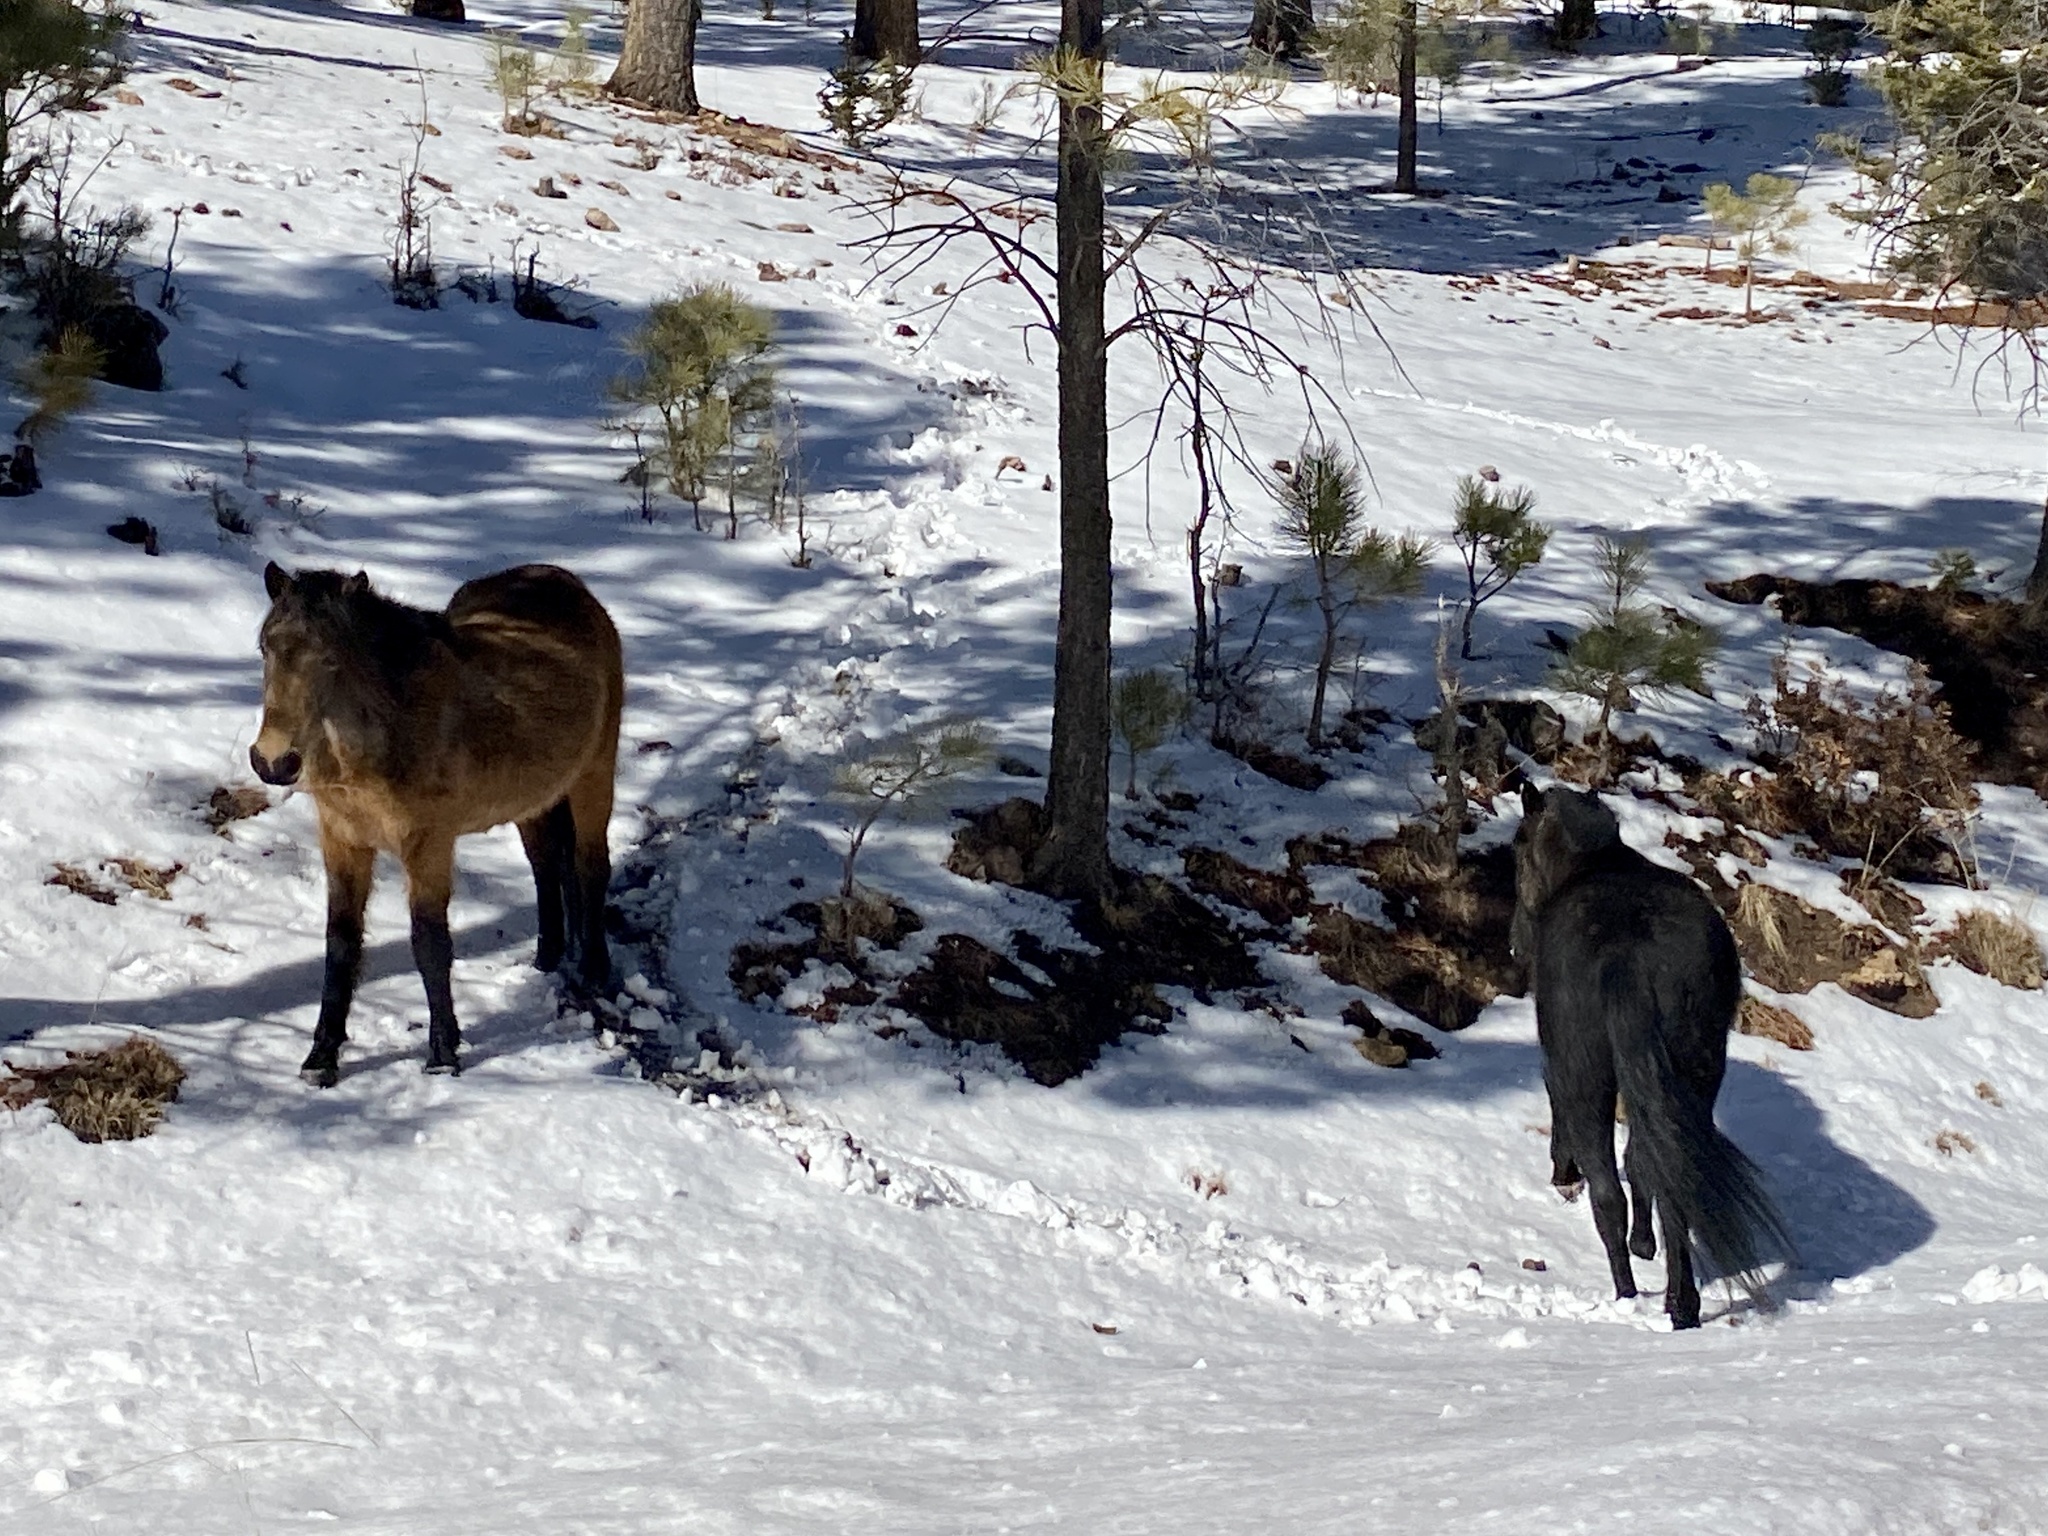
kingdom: Animalia
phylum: Chordata
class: Mammalia
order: Perissodactyla
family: Equidae
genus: Equus
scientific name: Equus caballus
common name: Horse
